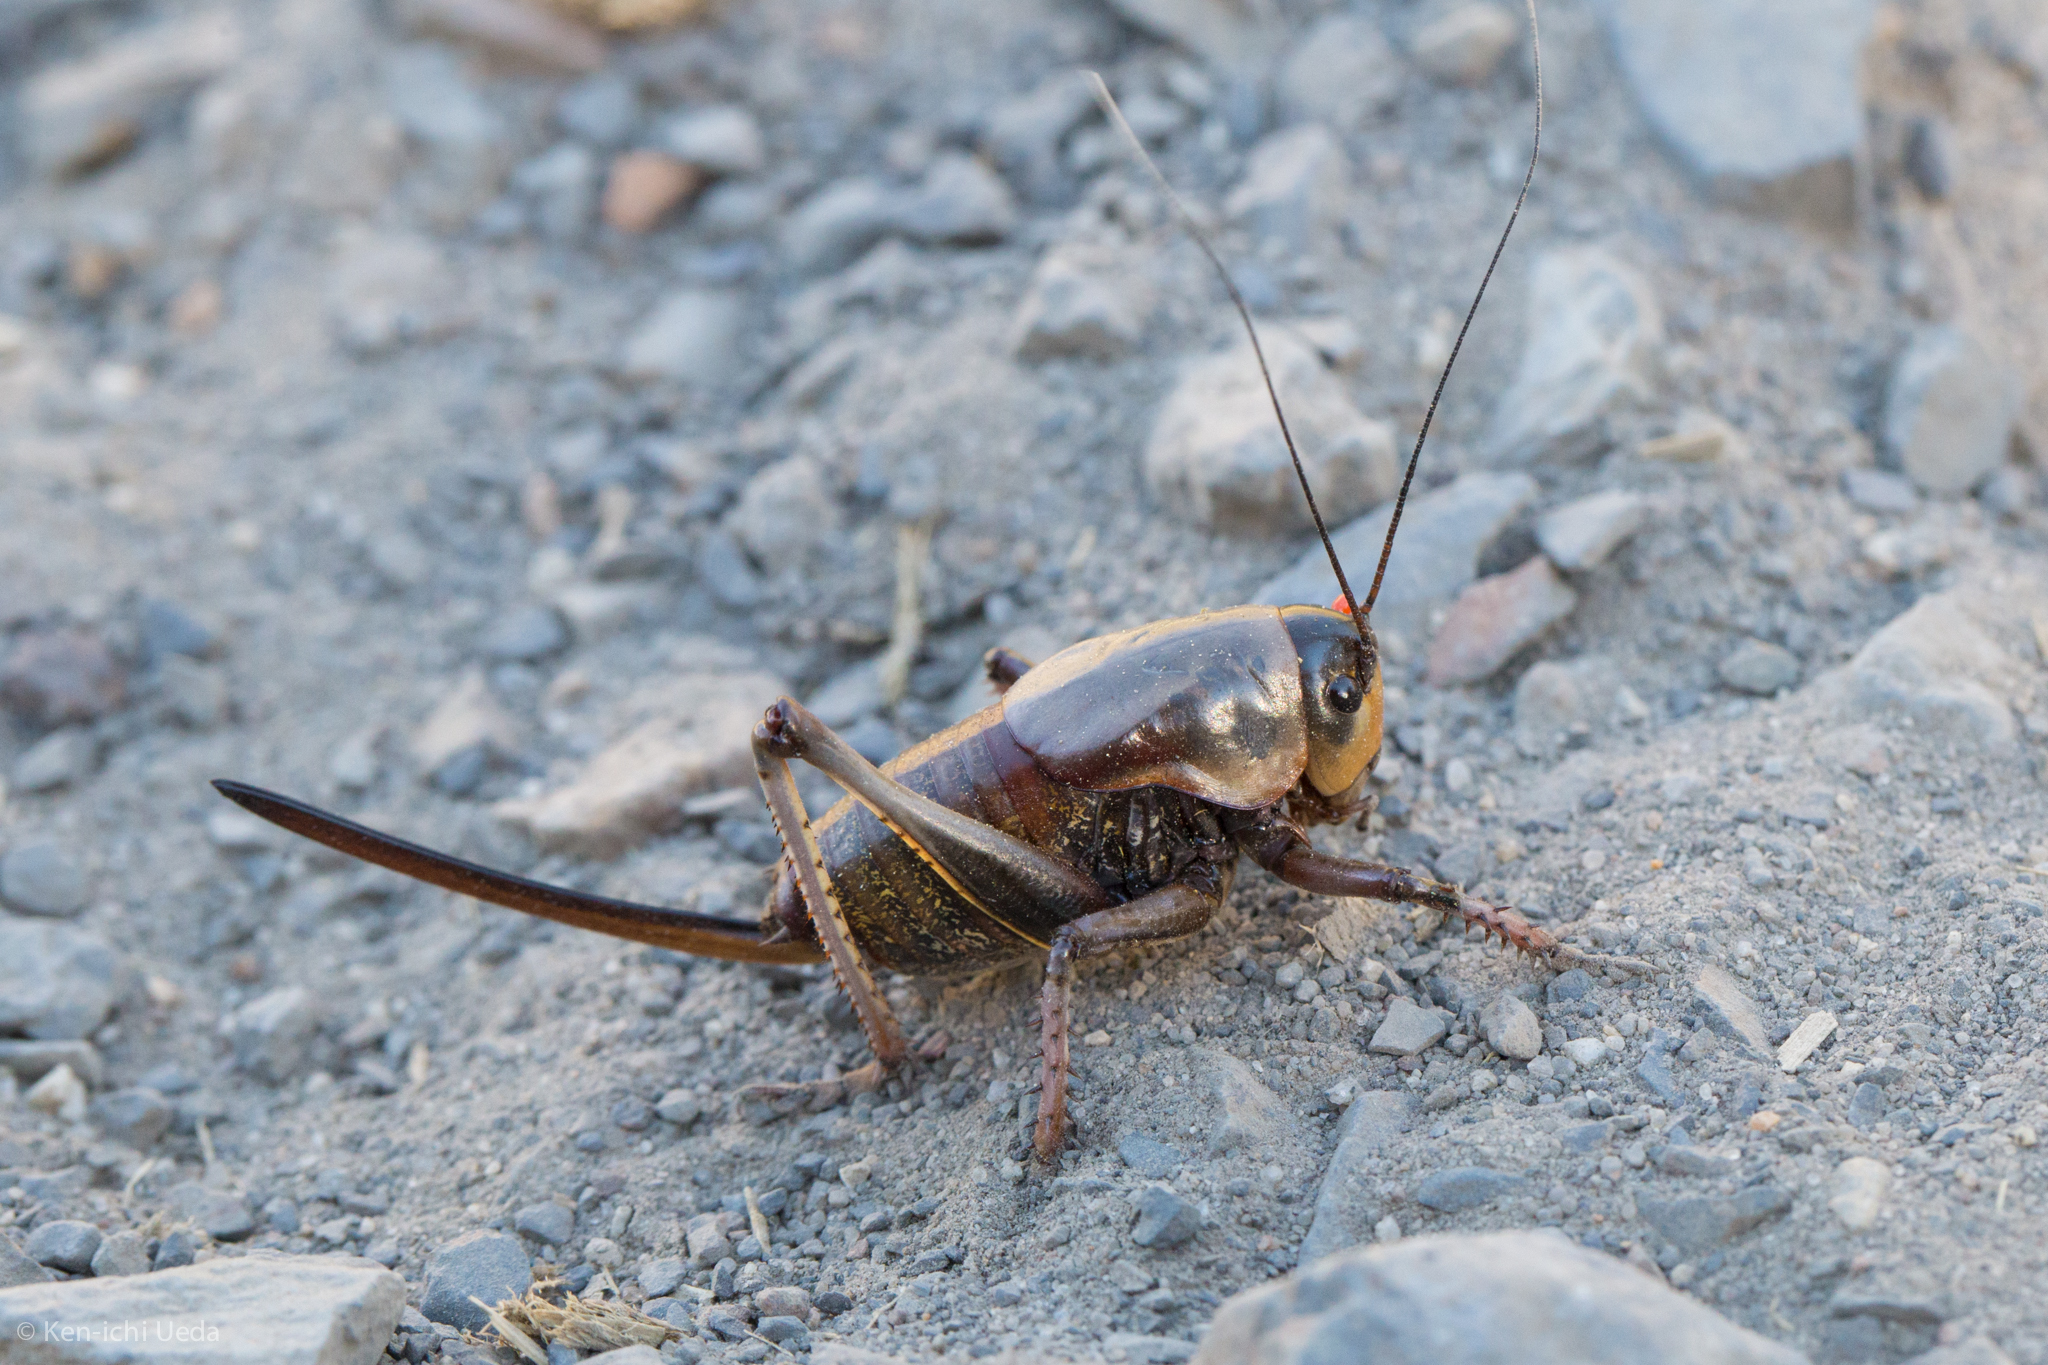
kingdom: Animalia
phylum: Arthropoda
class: Insecta
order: Orthoptera
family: Tettigoniidae
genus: Anabrus
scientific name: Anabrus simplex
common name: Mormon cricket
